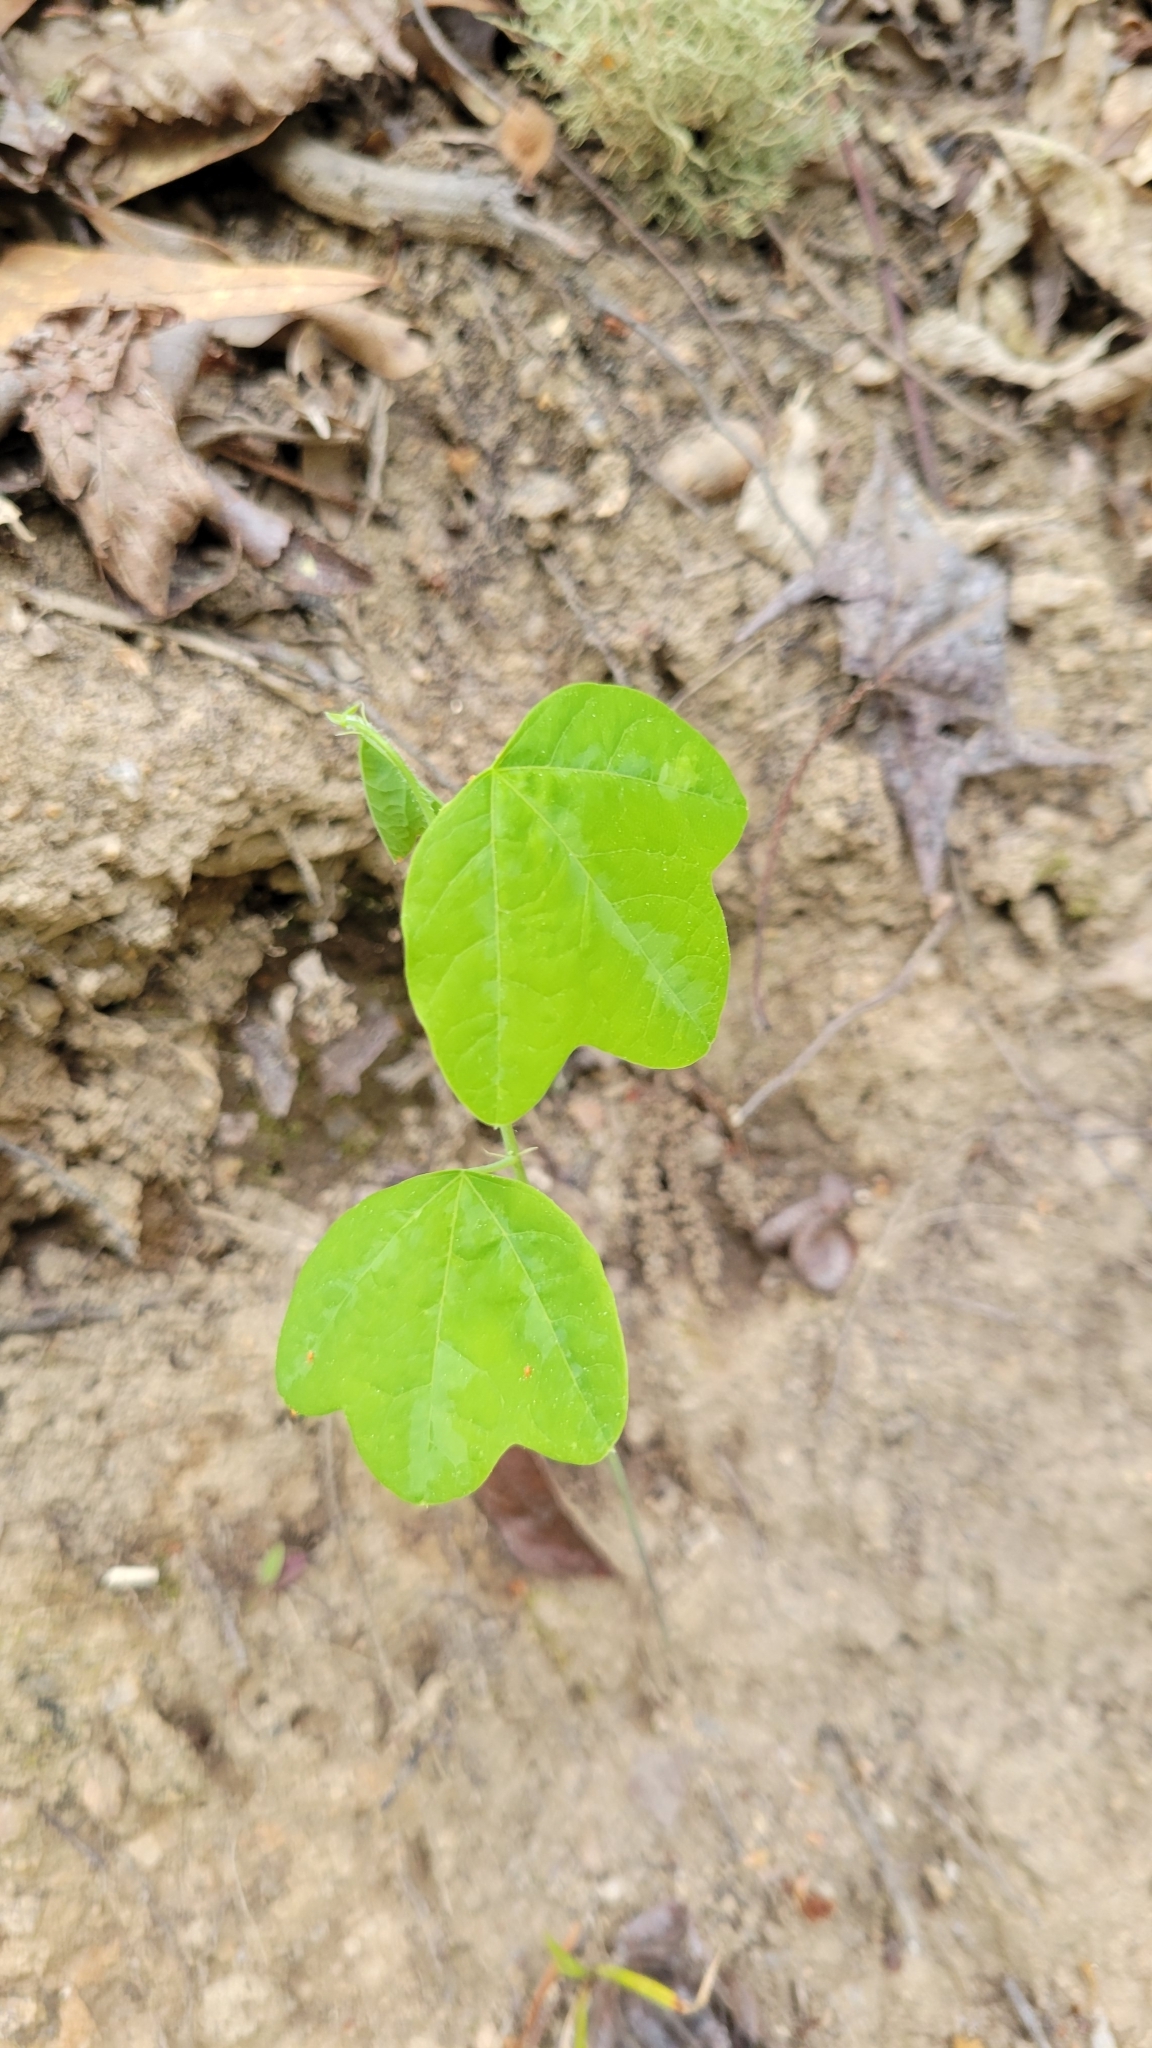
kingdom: Plantae
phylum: Tracheophyta
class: Magnoliopsida
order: Malpighiales
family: Passifloraceae
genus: Passiflora
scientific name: Passiflora lutea
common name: Yellow passionflower
